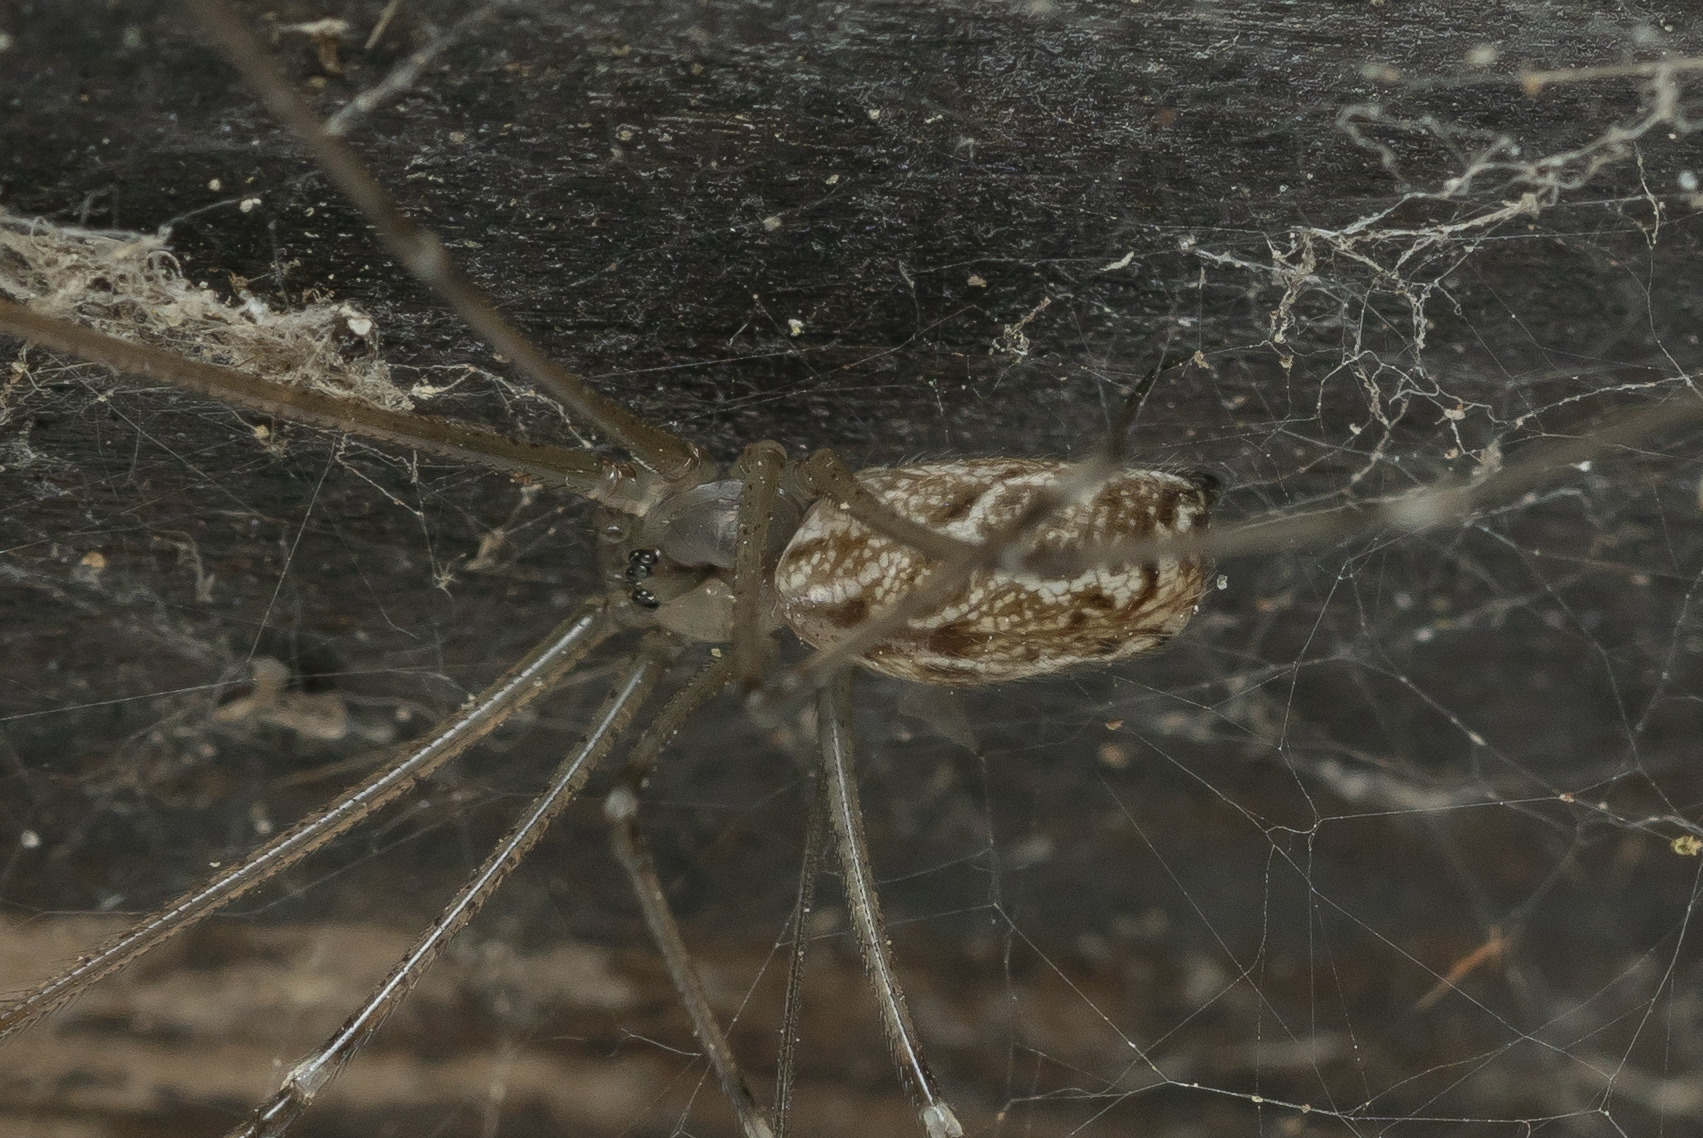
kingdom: Animalia
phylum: Arthropoda
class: Arachnida
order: Araneae
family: Pholcidae
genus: Holocnemus
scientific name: Holocnemus pluchei
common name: Marbled cellar spider
